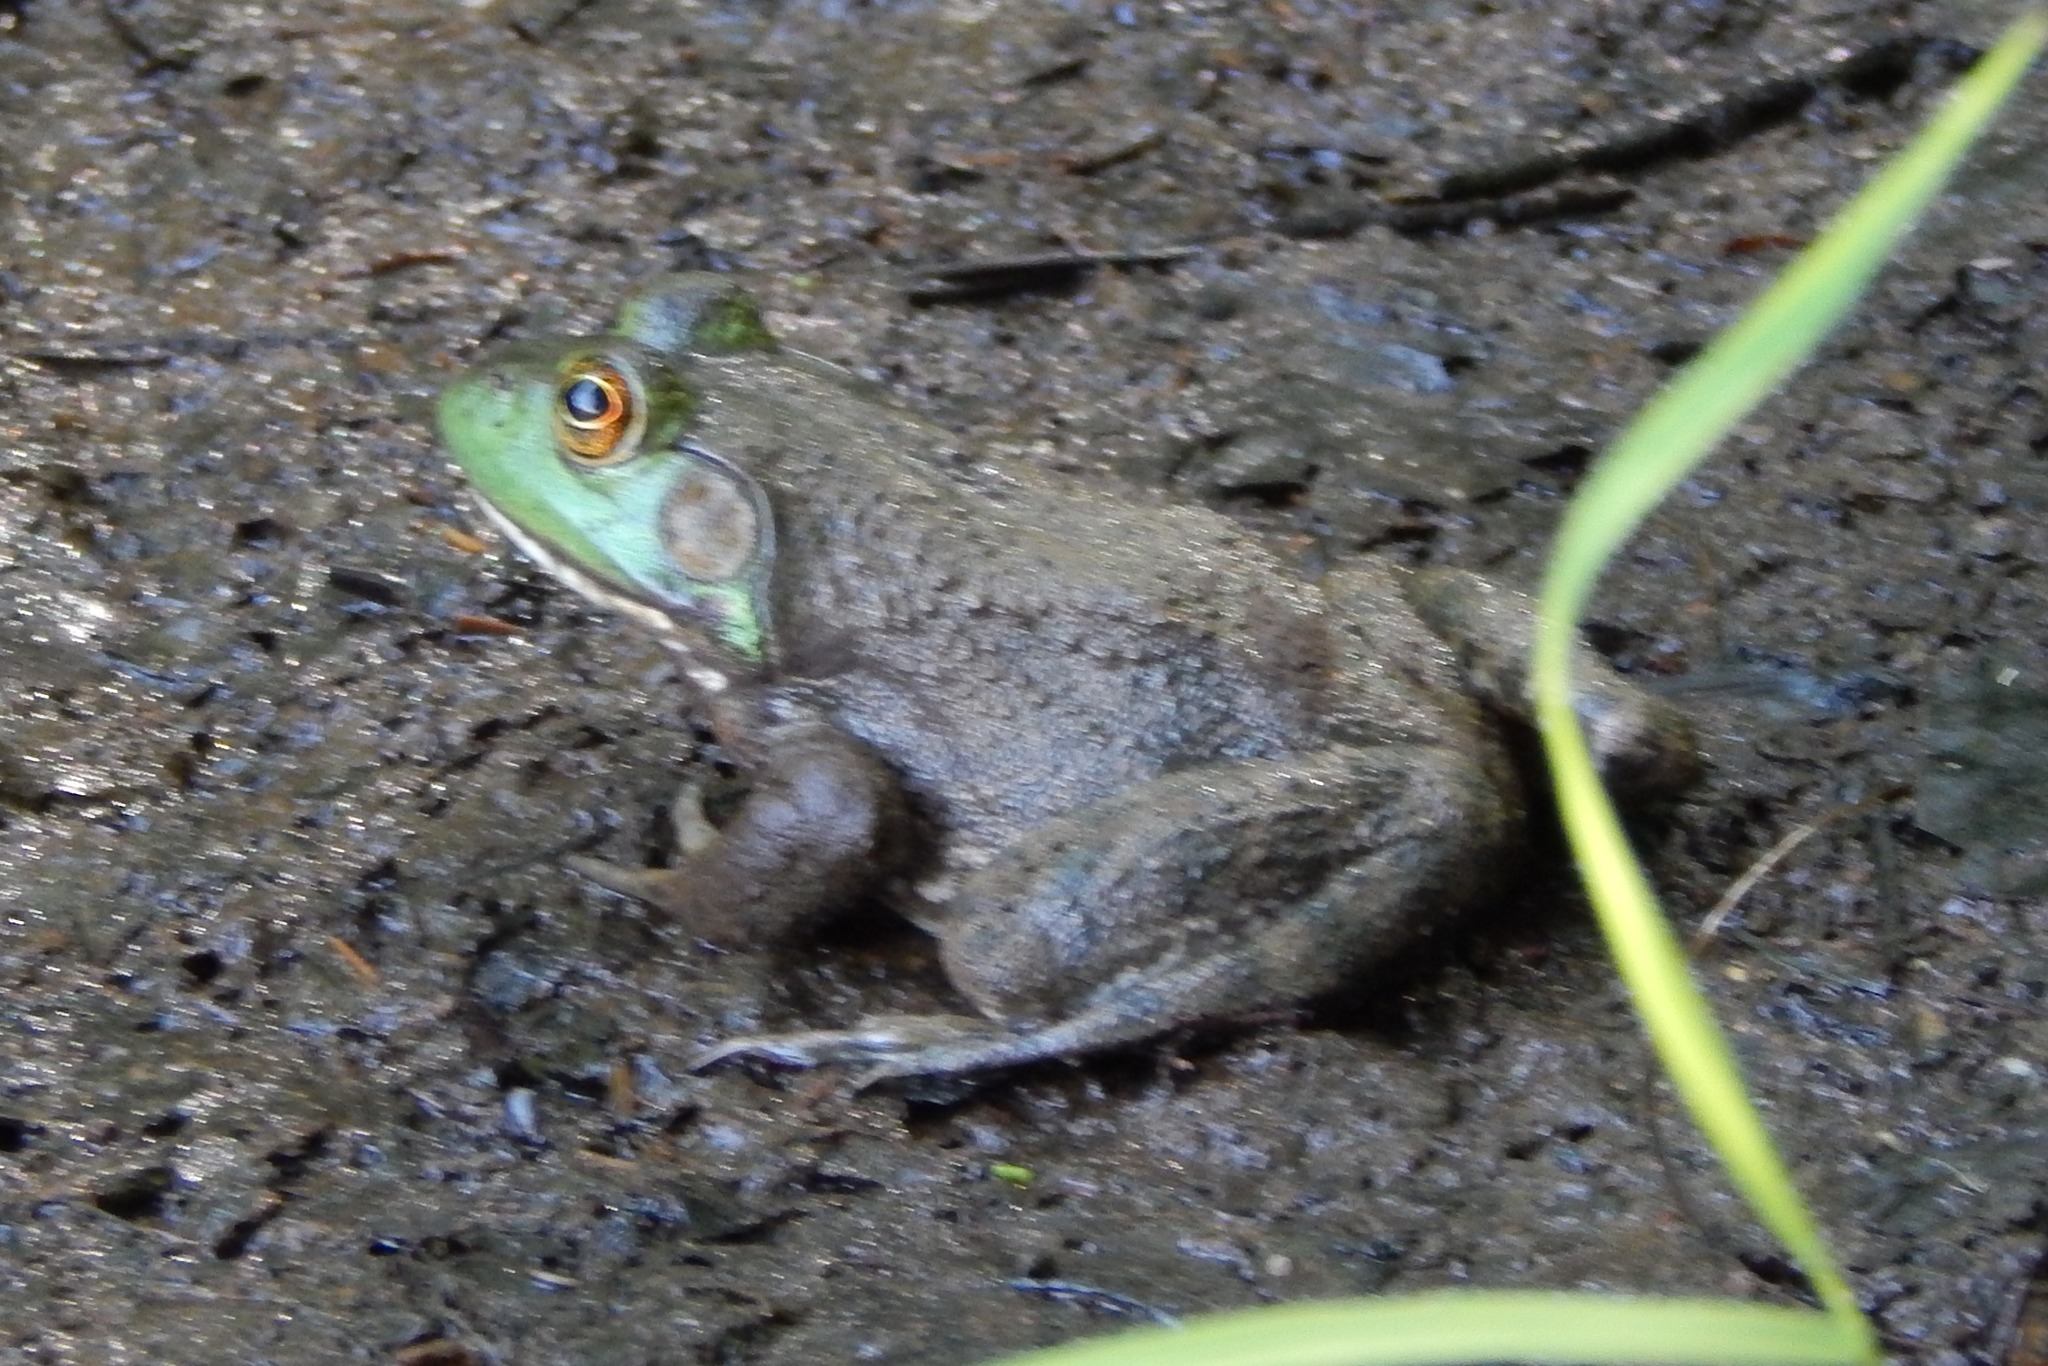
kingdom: Animalia
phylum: Chordata
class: Amphibia
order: Anura
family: Ranidae
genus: Lithobates
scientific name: Lithobates catesbeianus
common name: American bullfrog
